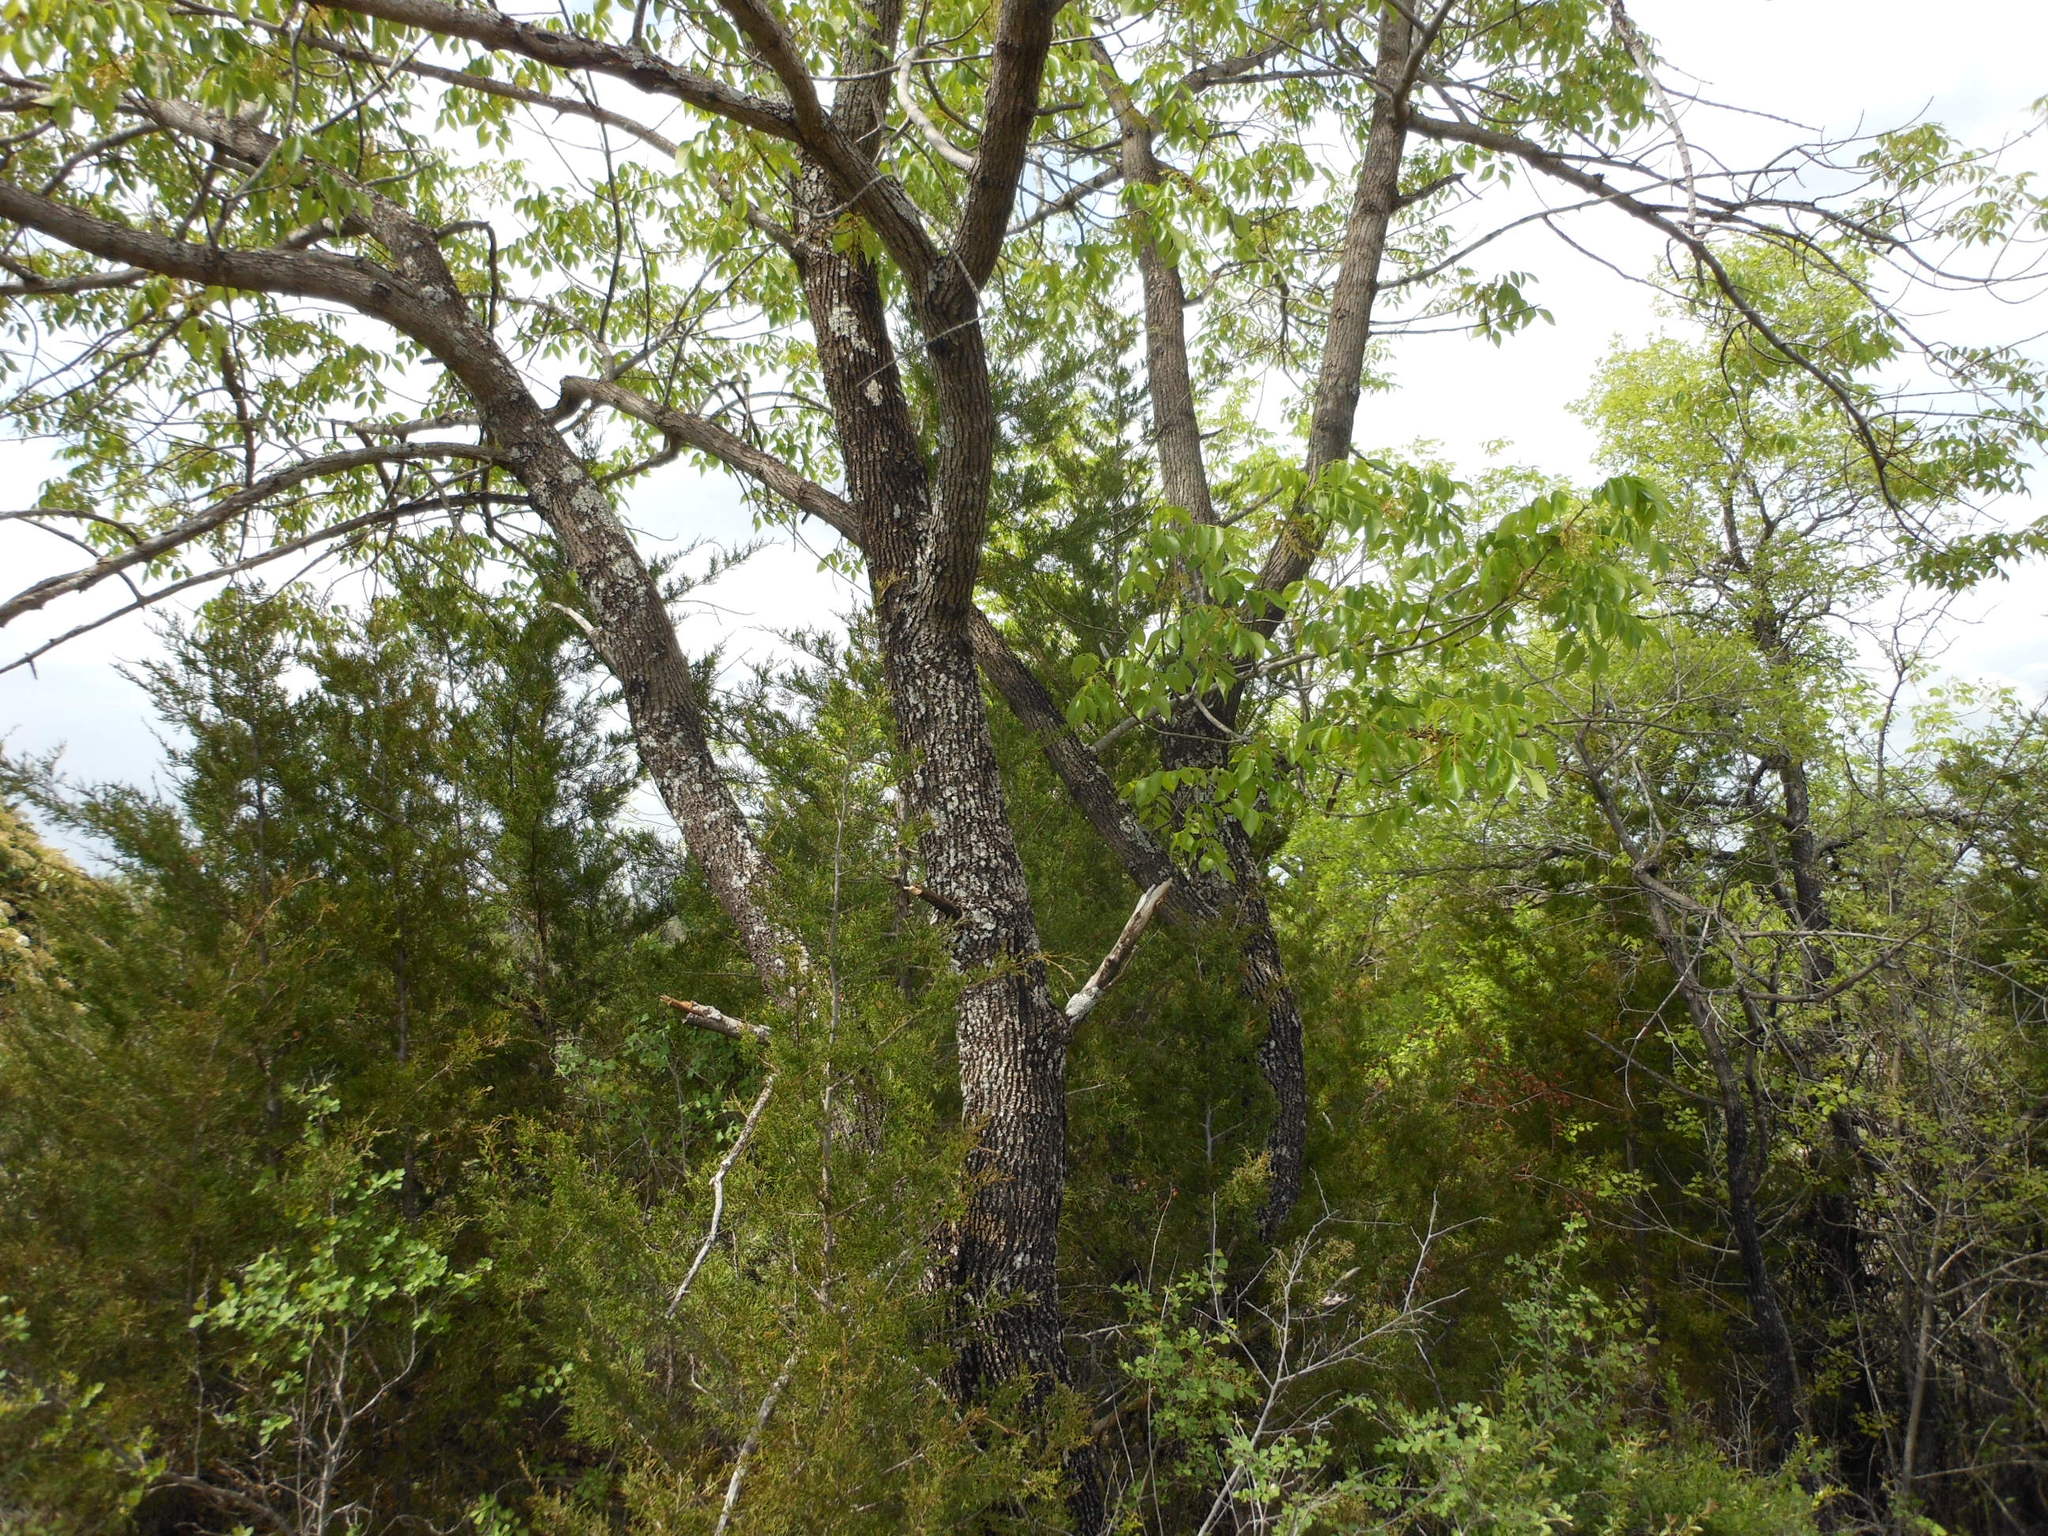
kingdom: Plantae
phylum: Tracheophyta
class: Magnoliopsida
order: Lamiales
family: Oleaceae
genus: Fraxinus
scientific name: Fraxinus albicans
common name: Texas ash
